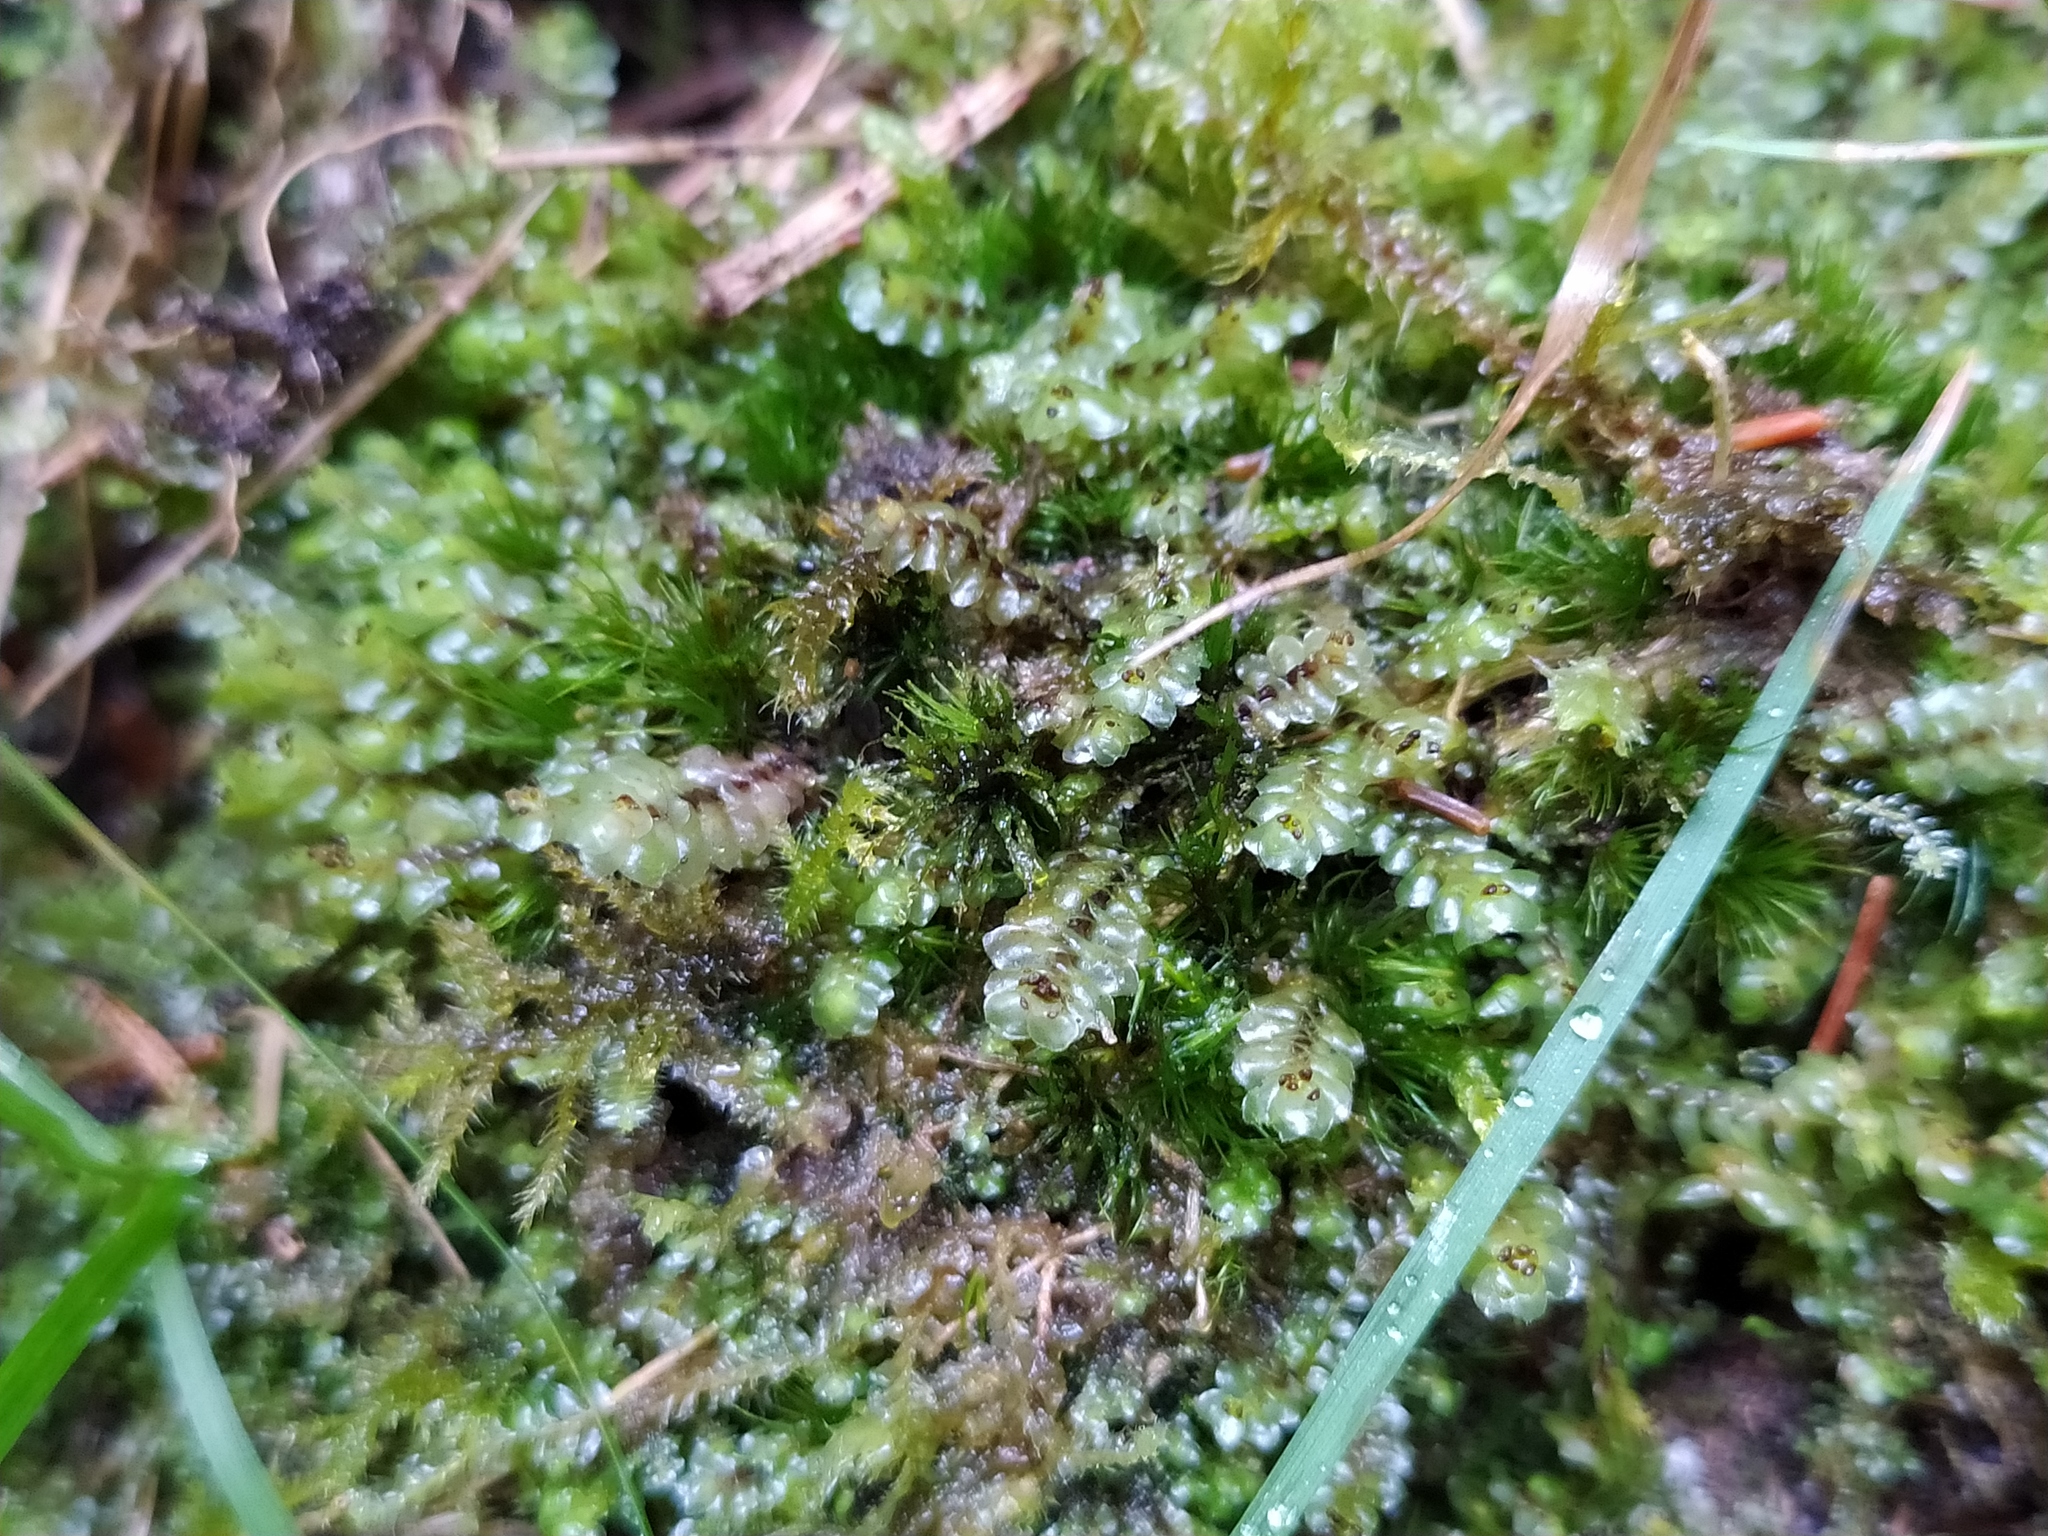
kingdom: Plantae
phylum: Marchantiophyta
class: Jungermanniopsida
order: Jungermanniales
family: Scapaniaceae
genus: Scapania
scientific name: Scapania nemorea
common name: Grove earwort
